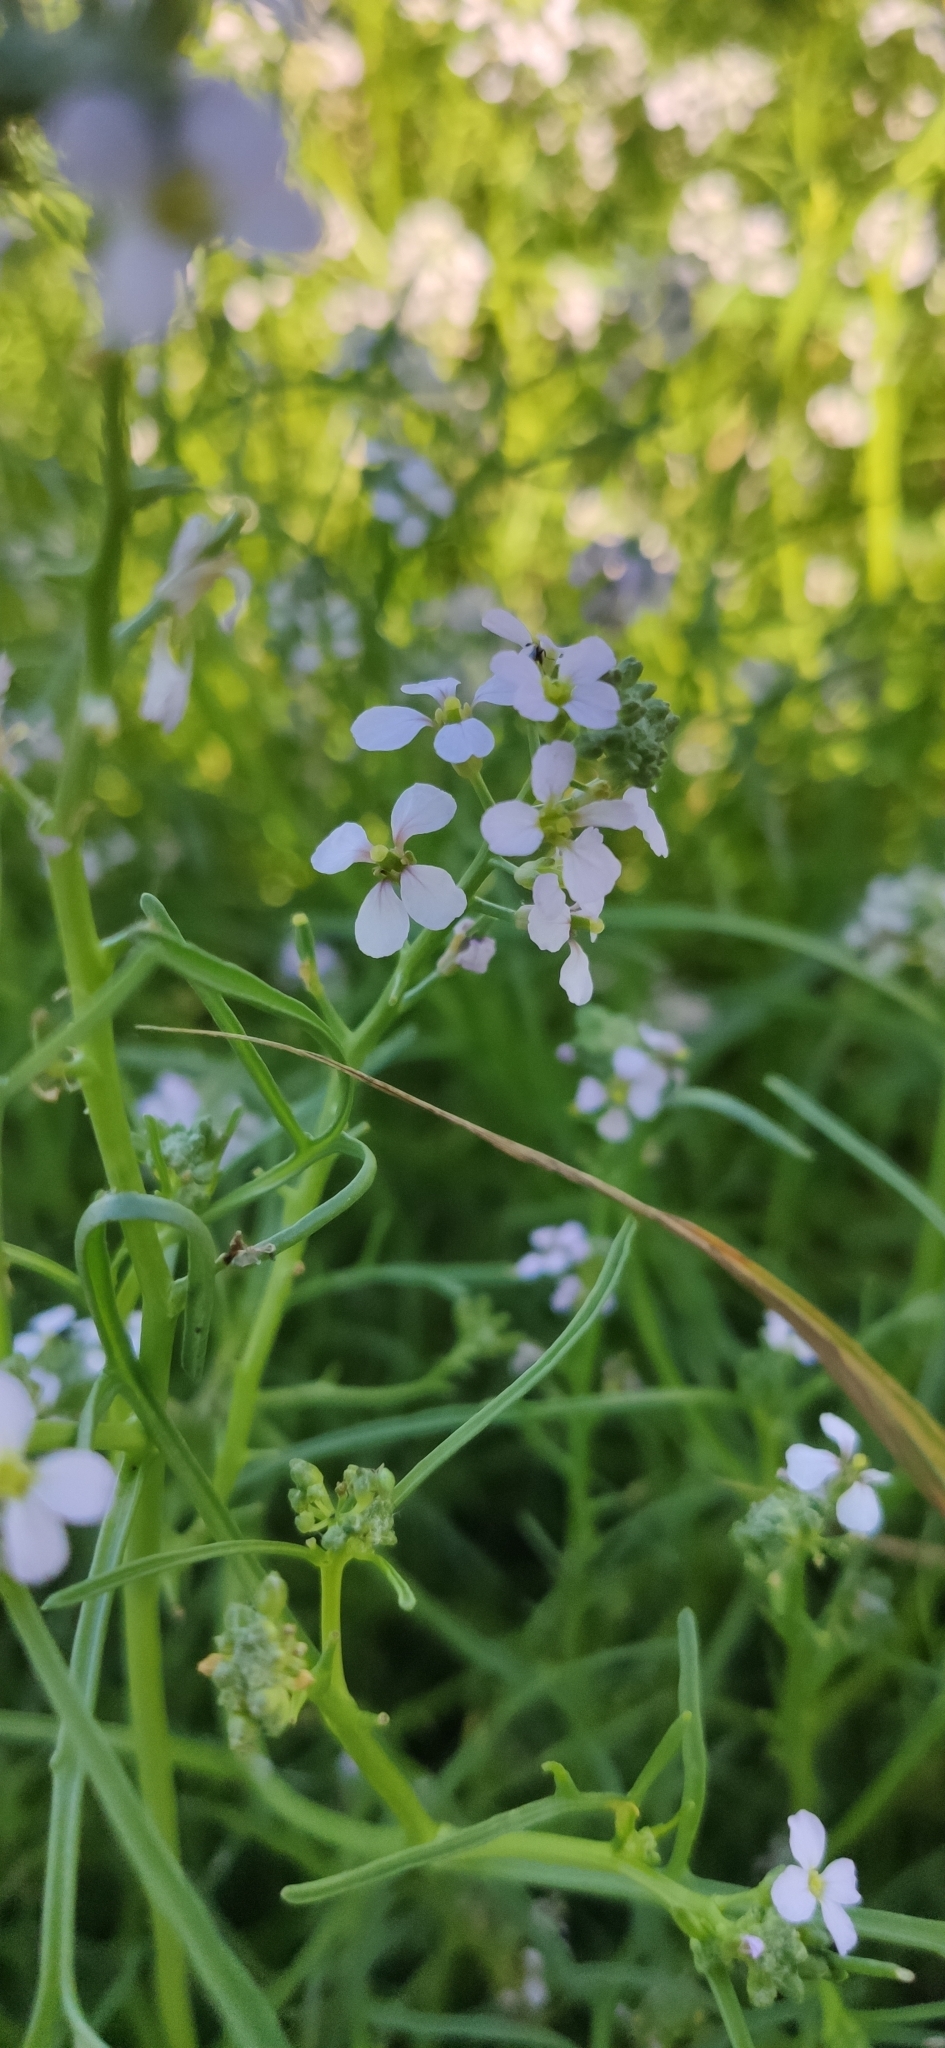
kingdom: Plantae
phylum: Tracheophyta
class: Magnoliopsida
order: Brassicales
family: Brassicaceae
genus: Cakile
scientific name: Cakile maritima
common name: Sea rocket
